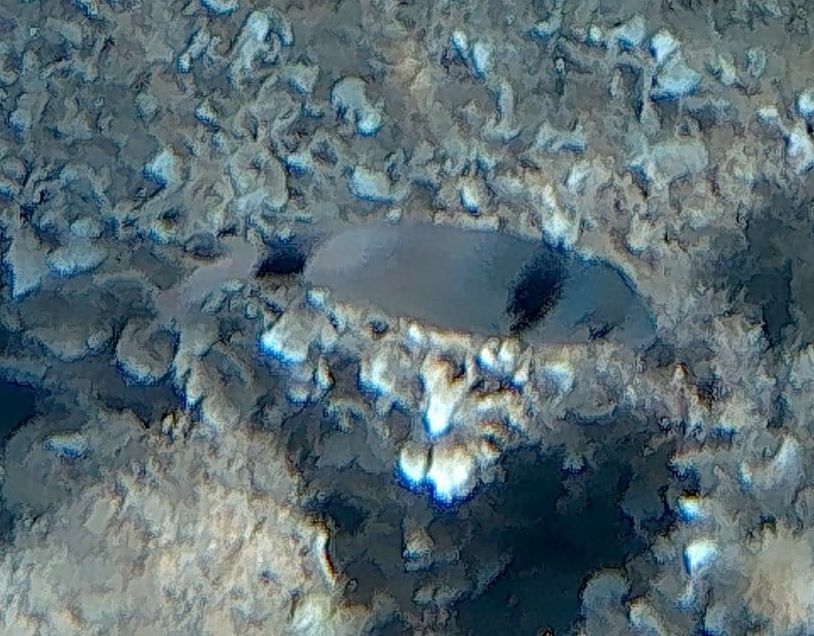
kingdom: Animalia
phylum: Chordata
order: Perciformes
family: Sparidae
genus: Diplodus
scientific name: Diplodus vulgaris
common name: Common two-banded seabream
